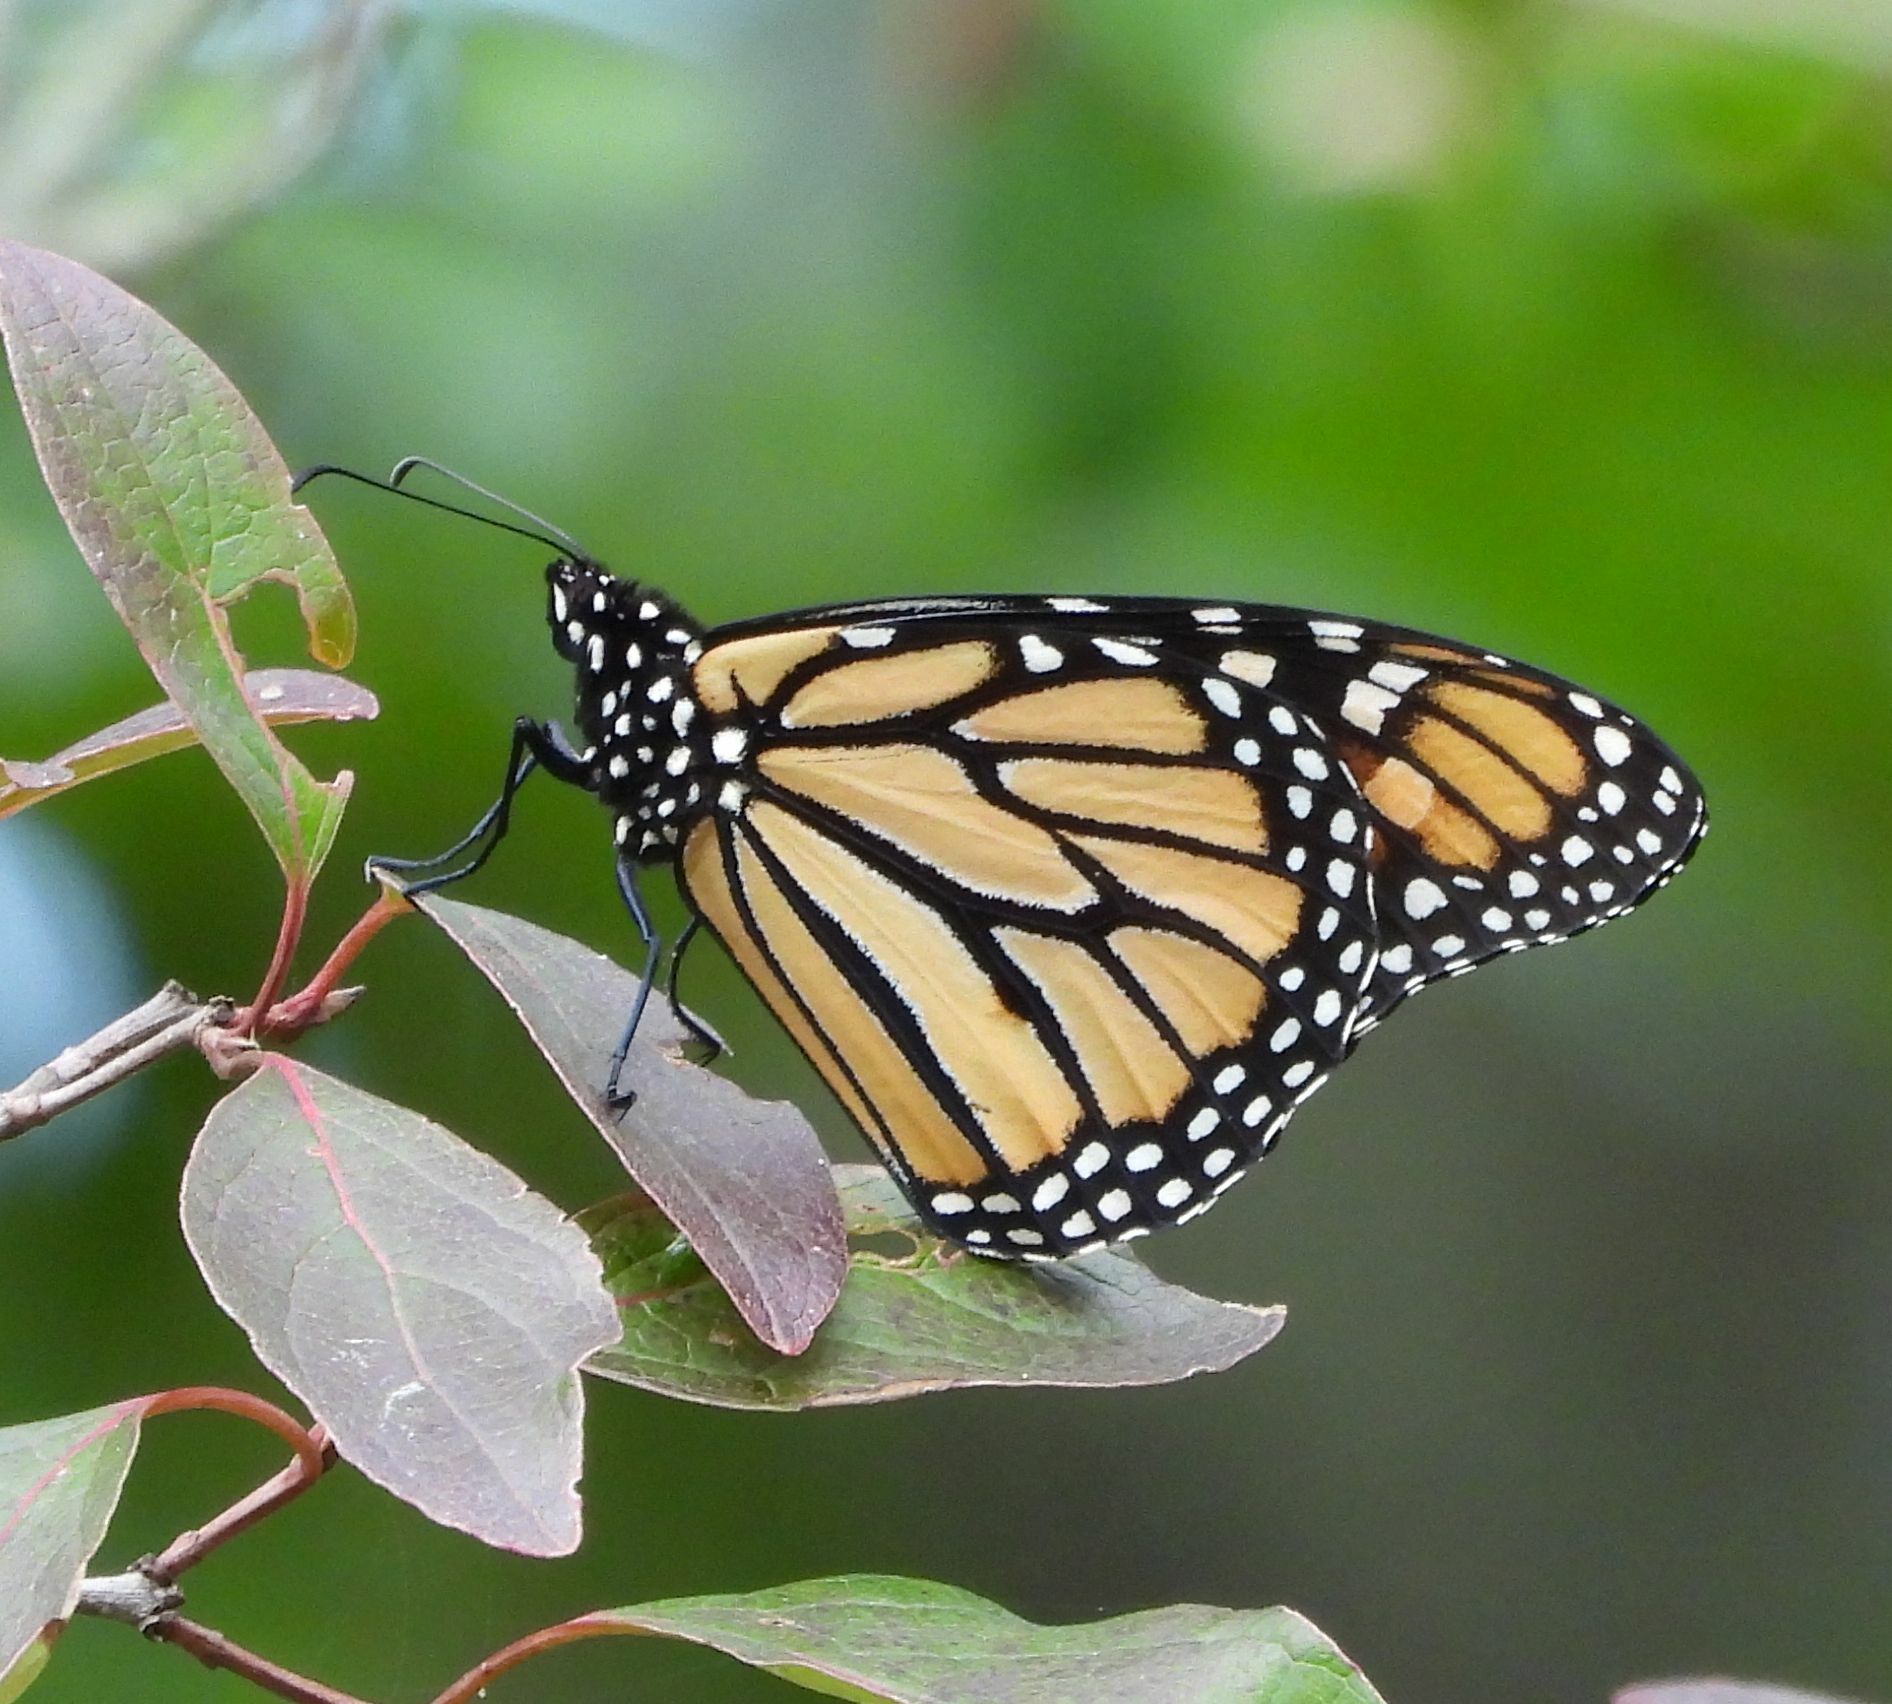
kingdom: Animalia
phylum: Arthropoda
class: Insecta
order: Lepidoptera
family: Nymphalidae
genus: Danaus
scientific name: Danaus plexippus
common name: Monarch
